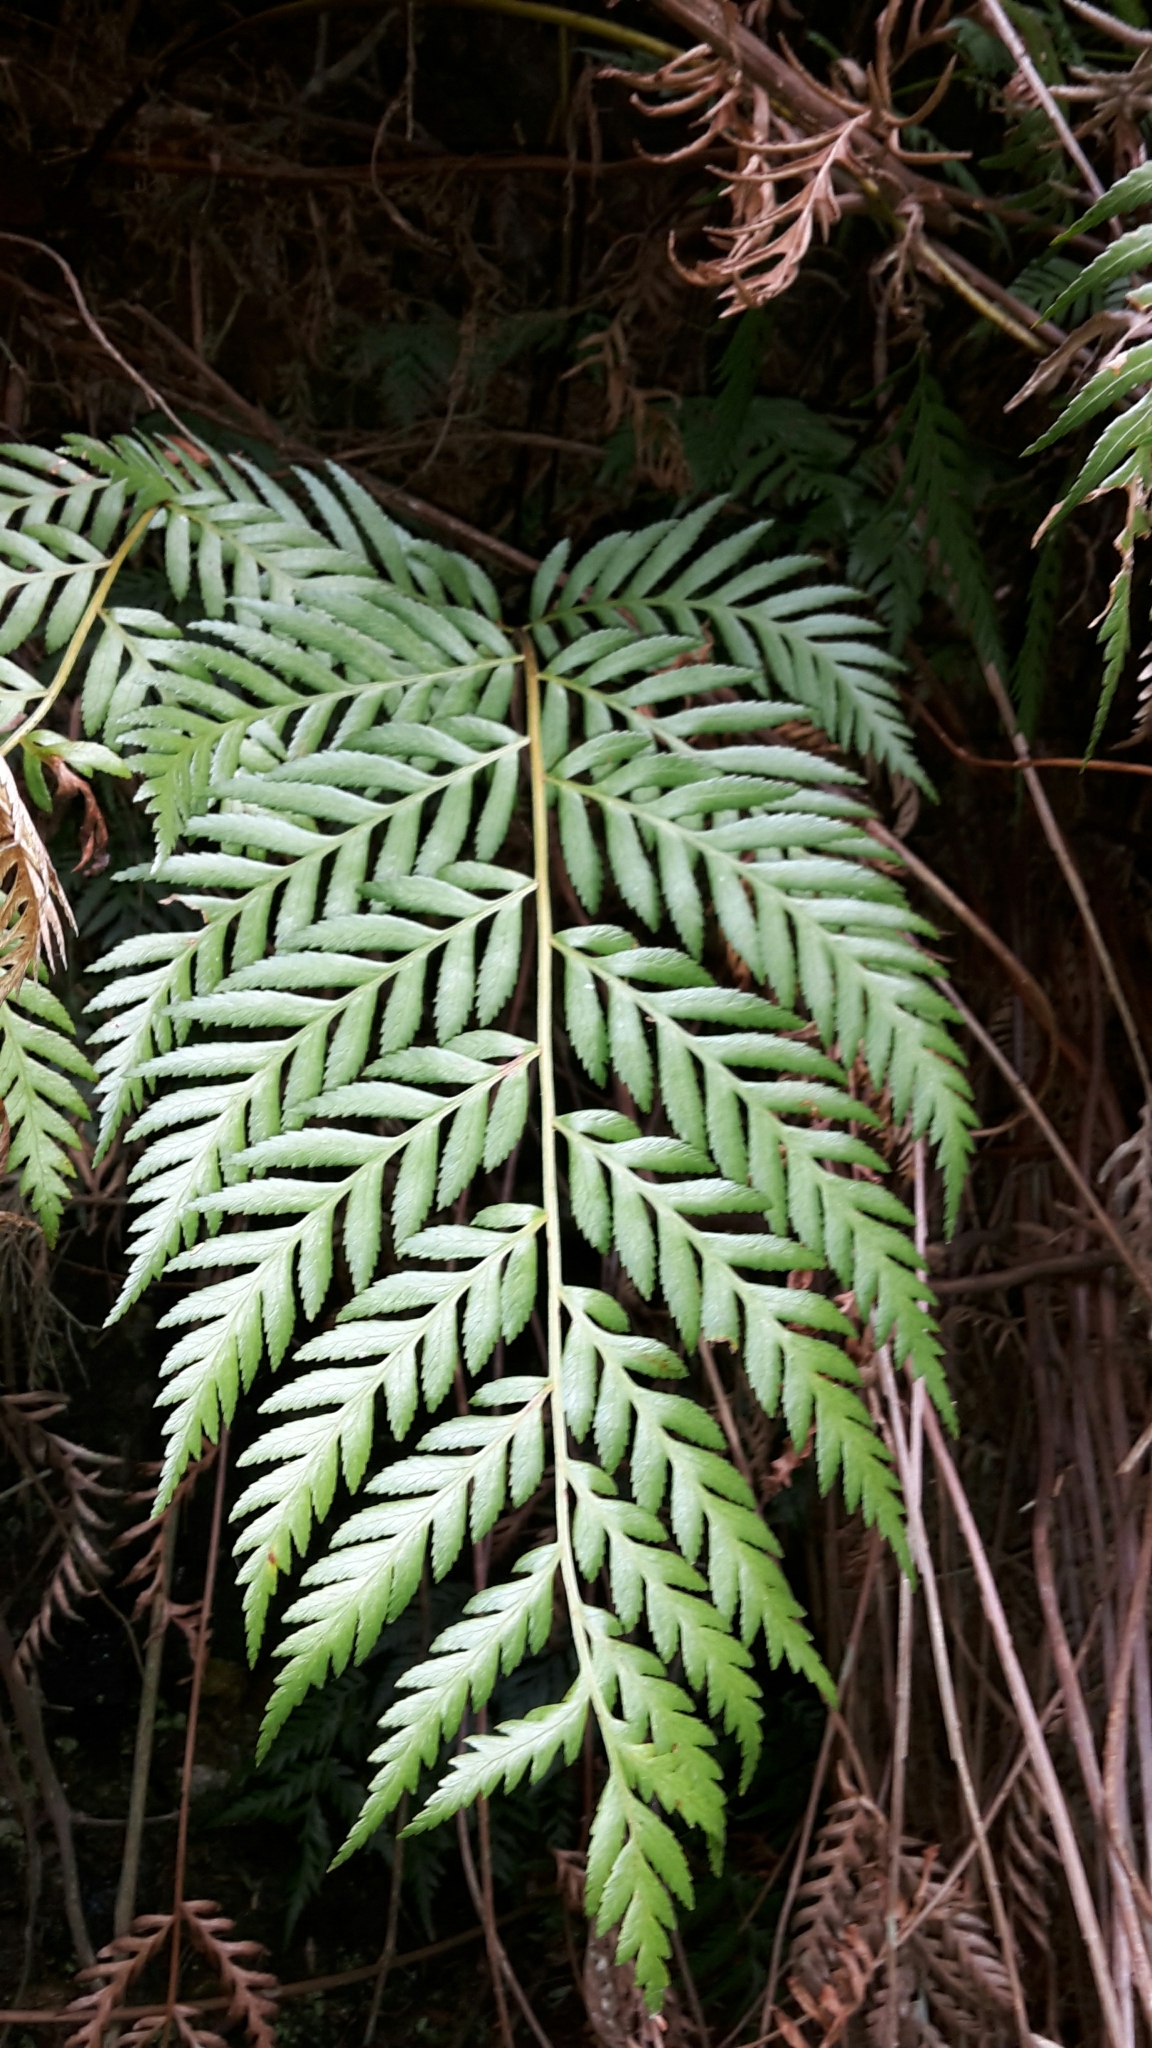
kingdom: Plantae
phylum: Tracheophyta
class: Polypodiopsida
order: Osmundales
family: Osmundaceae
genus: Todea
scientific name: Todea barbara
